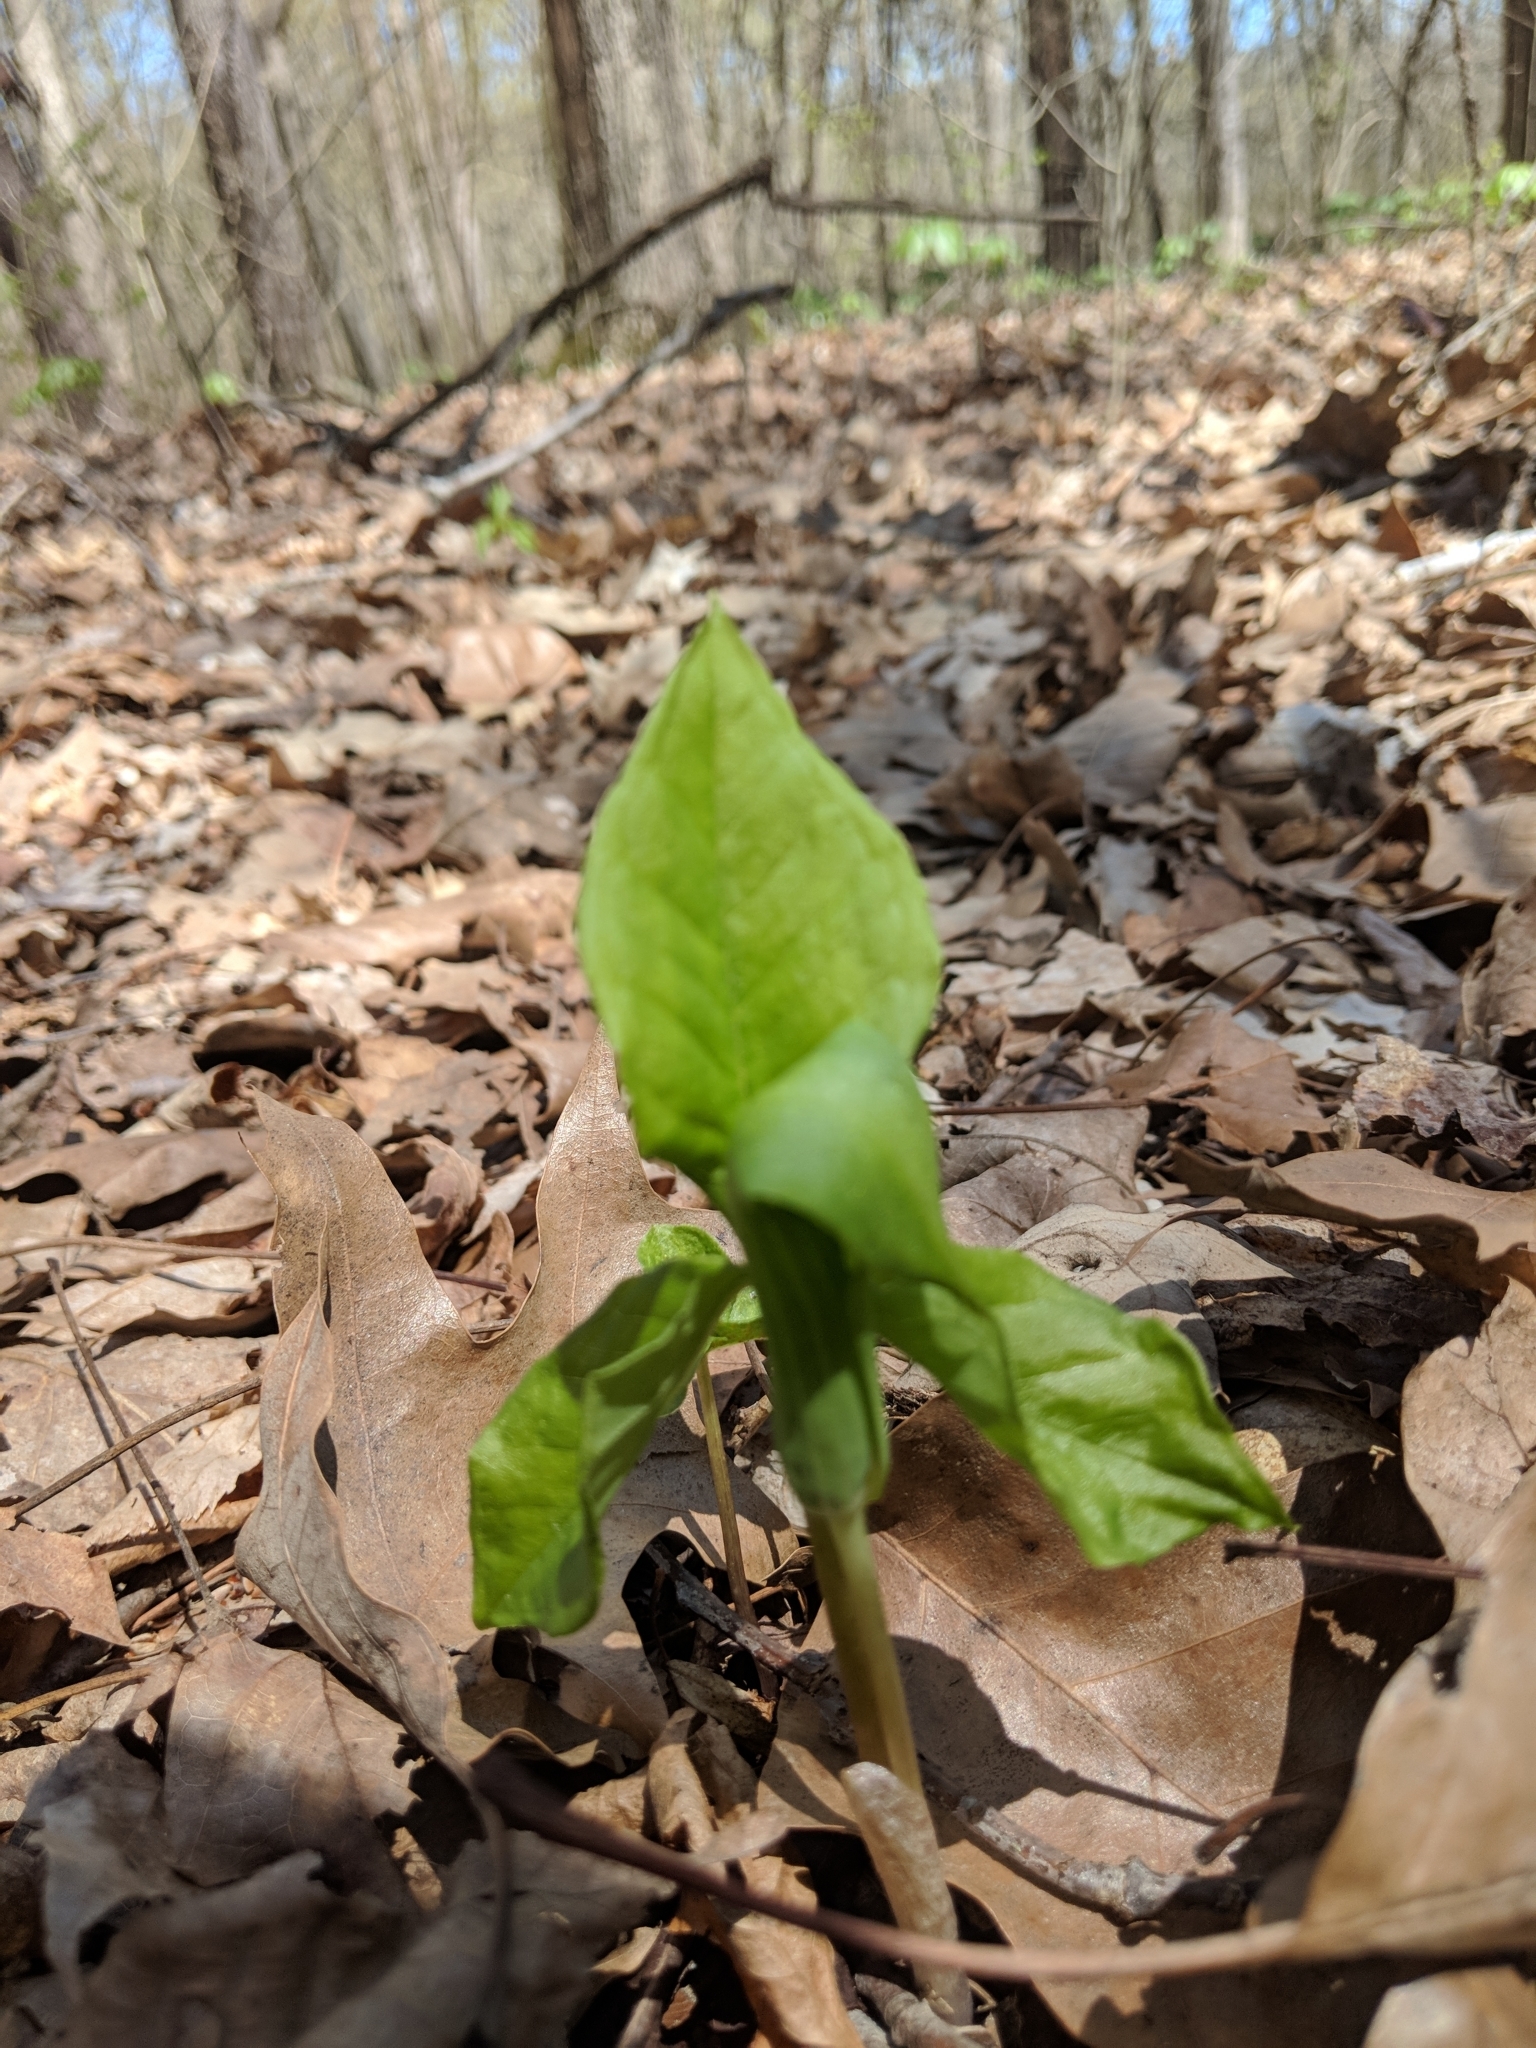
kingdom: Plantae
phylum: Tracheophyta
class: Liliopsida
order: Alismatales
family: Araceae
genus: Arisaema
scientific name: Arisaema triphyllum
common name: Jack-in-the-pulpit
